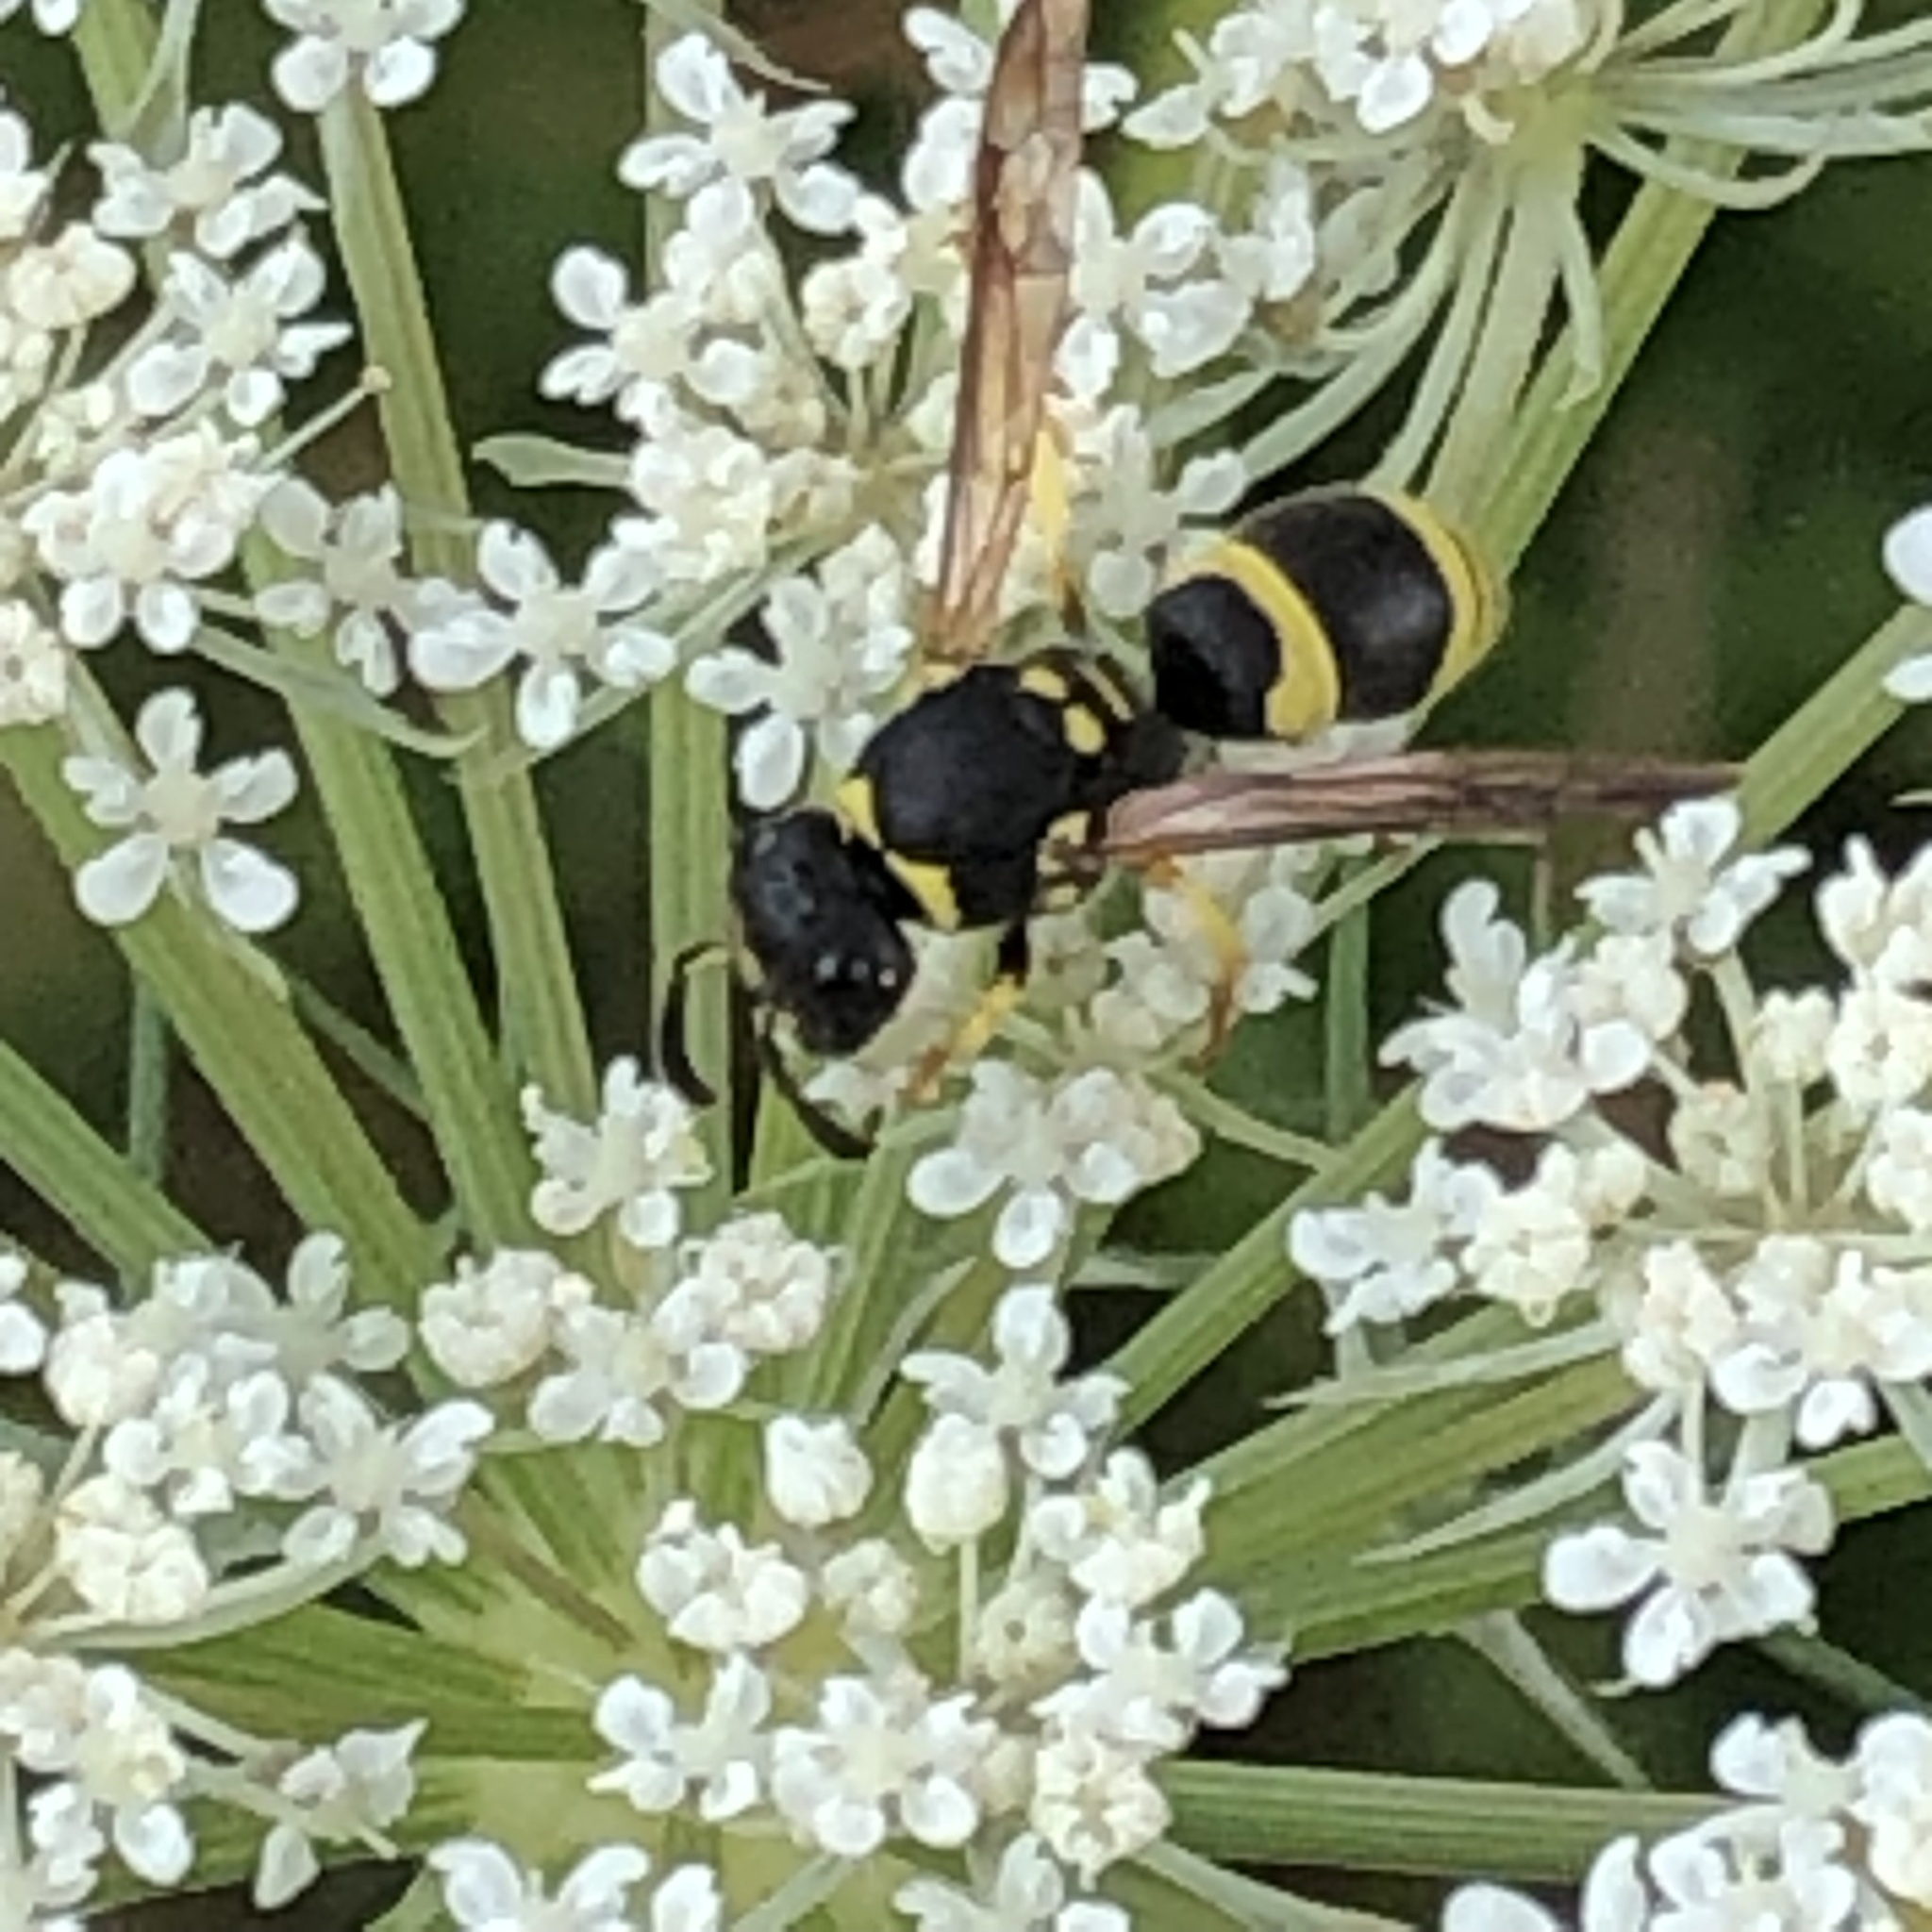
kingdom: Animalia
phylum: Arthropoda
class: Insecta
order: Hymenoptera
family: Vespidae
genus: Ancistrocerus
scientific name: Ancistrocerus gazella
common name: European tube wasp
